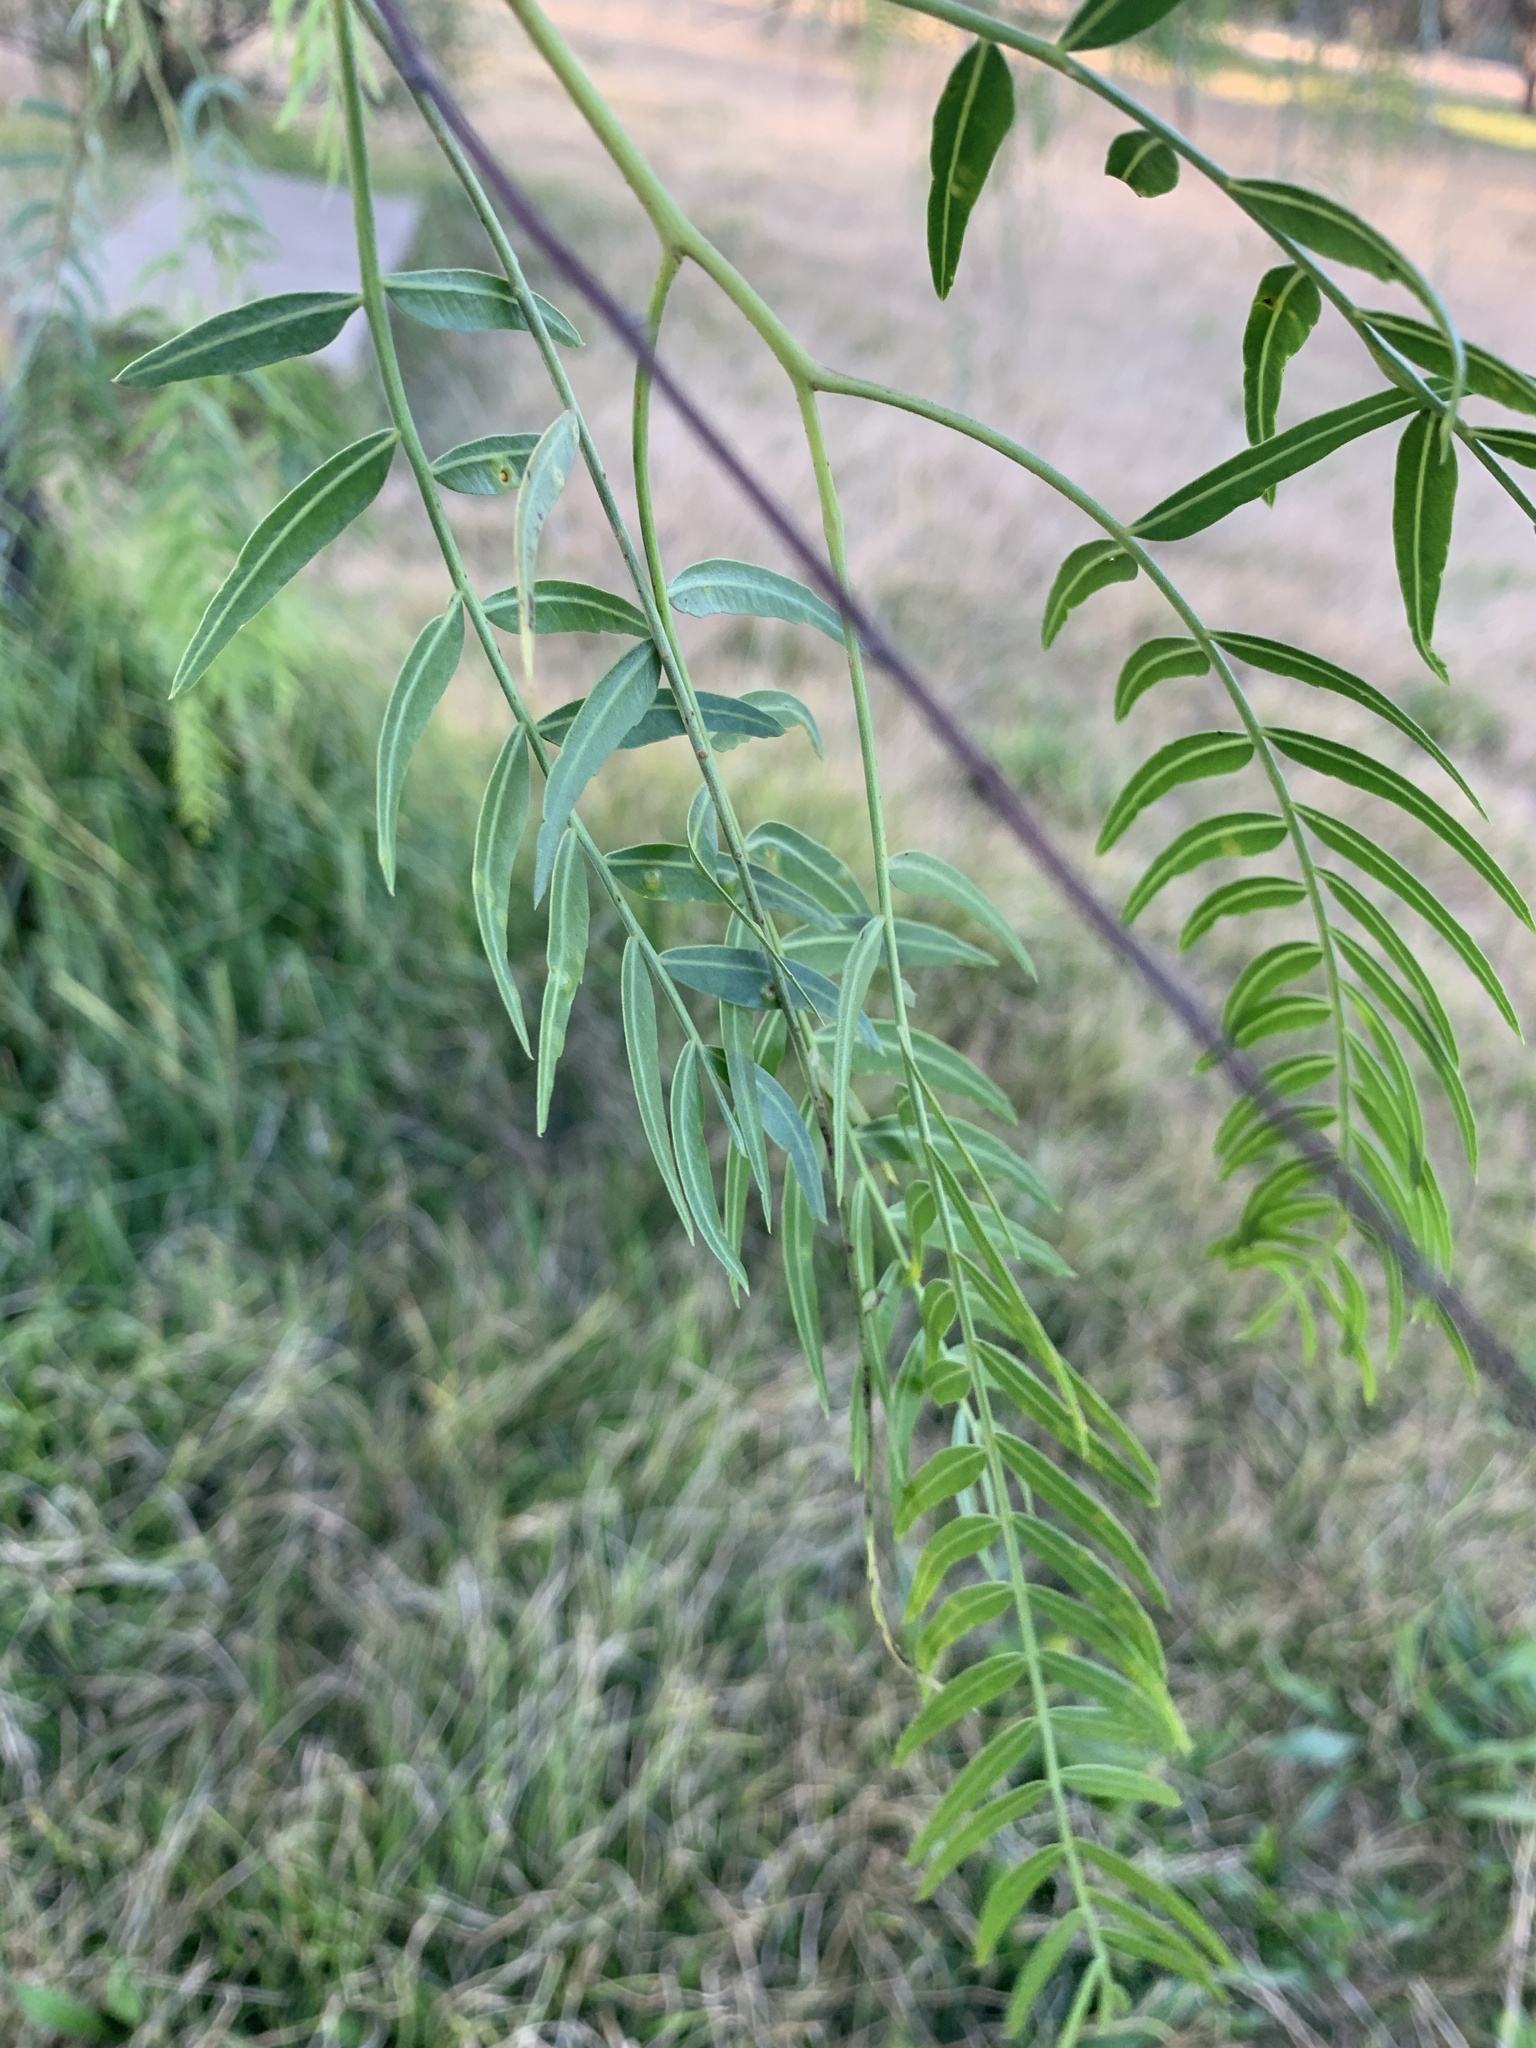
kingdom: Plantae
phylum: Tracheophyta
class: Magnoliopsida
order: Sapindales
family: Anacardiaceae
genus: Schinus
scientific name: Schinus molle
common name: Peruvian peppertree
